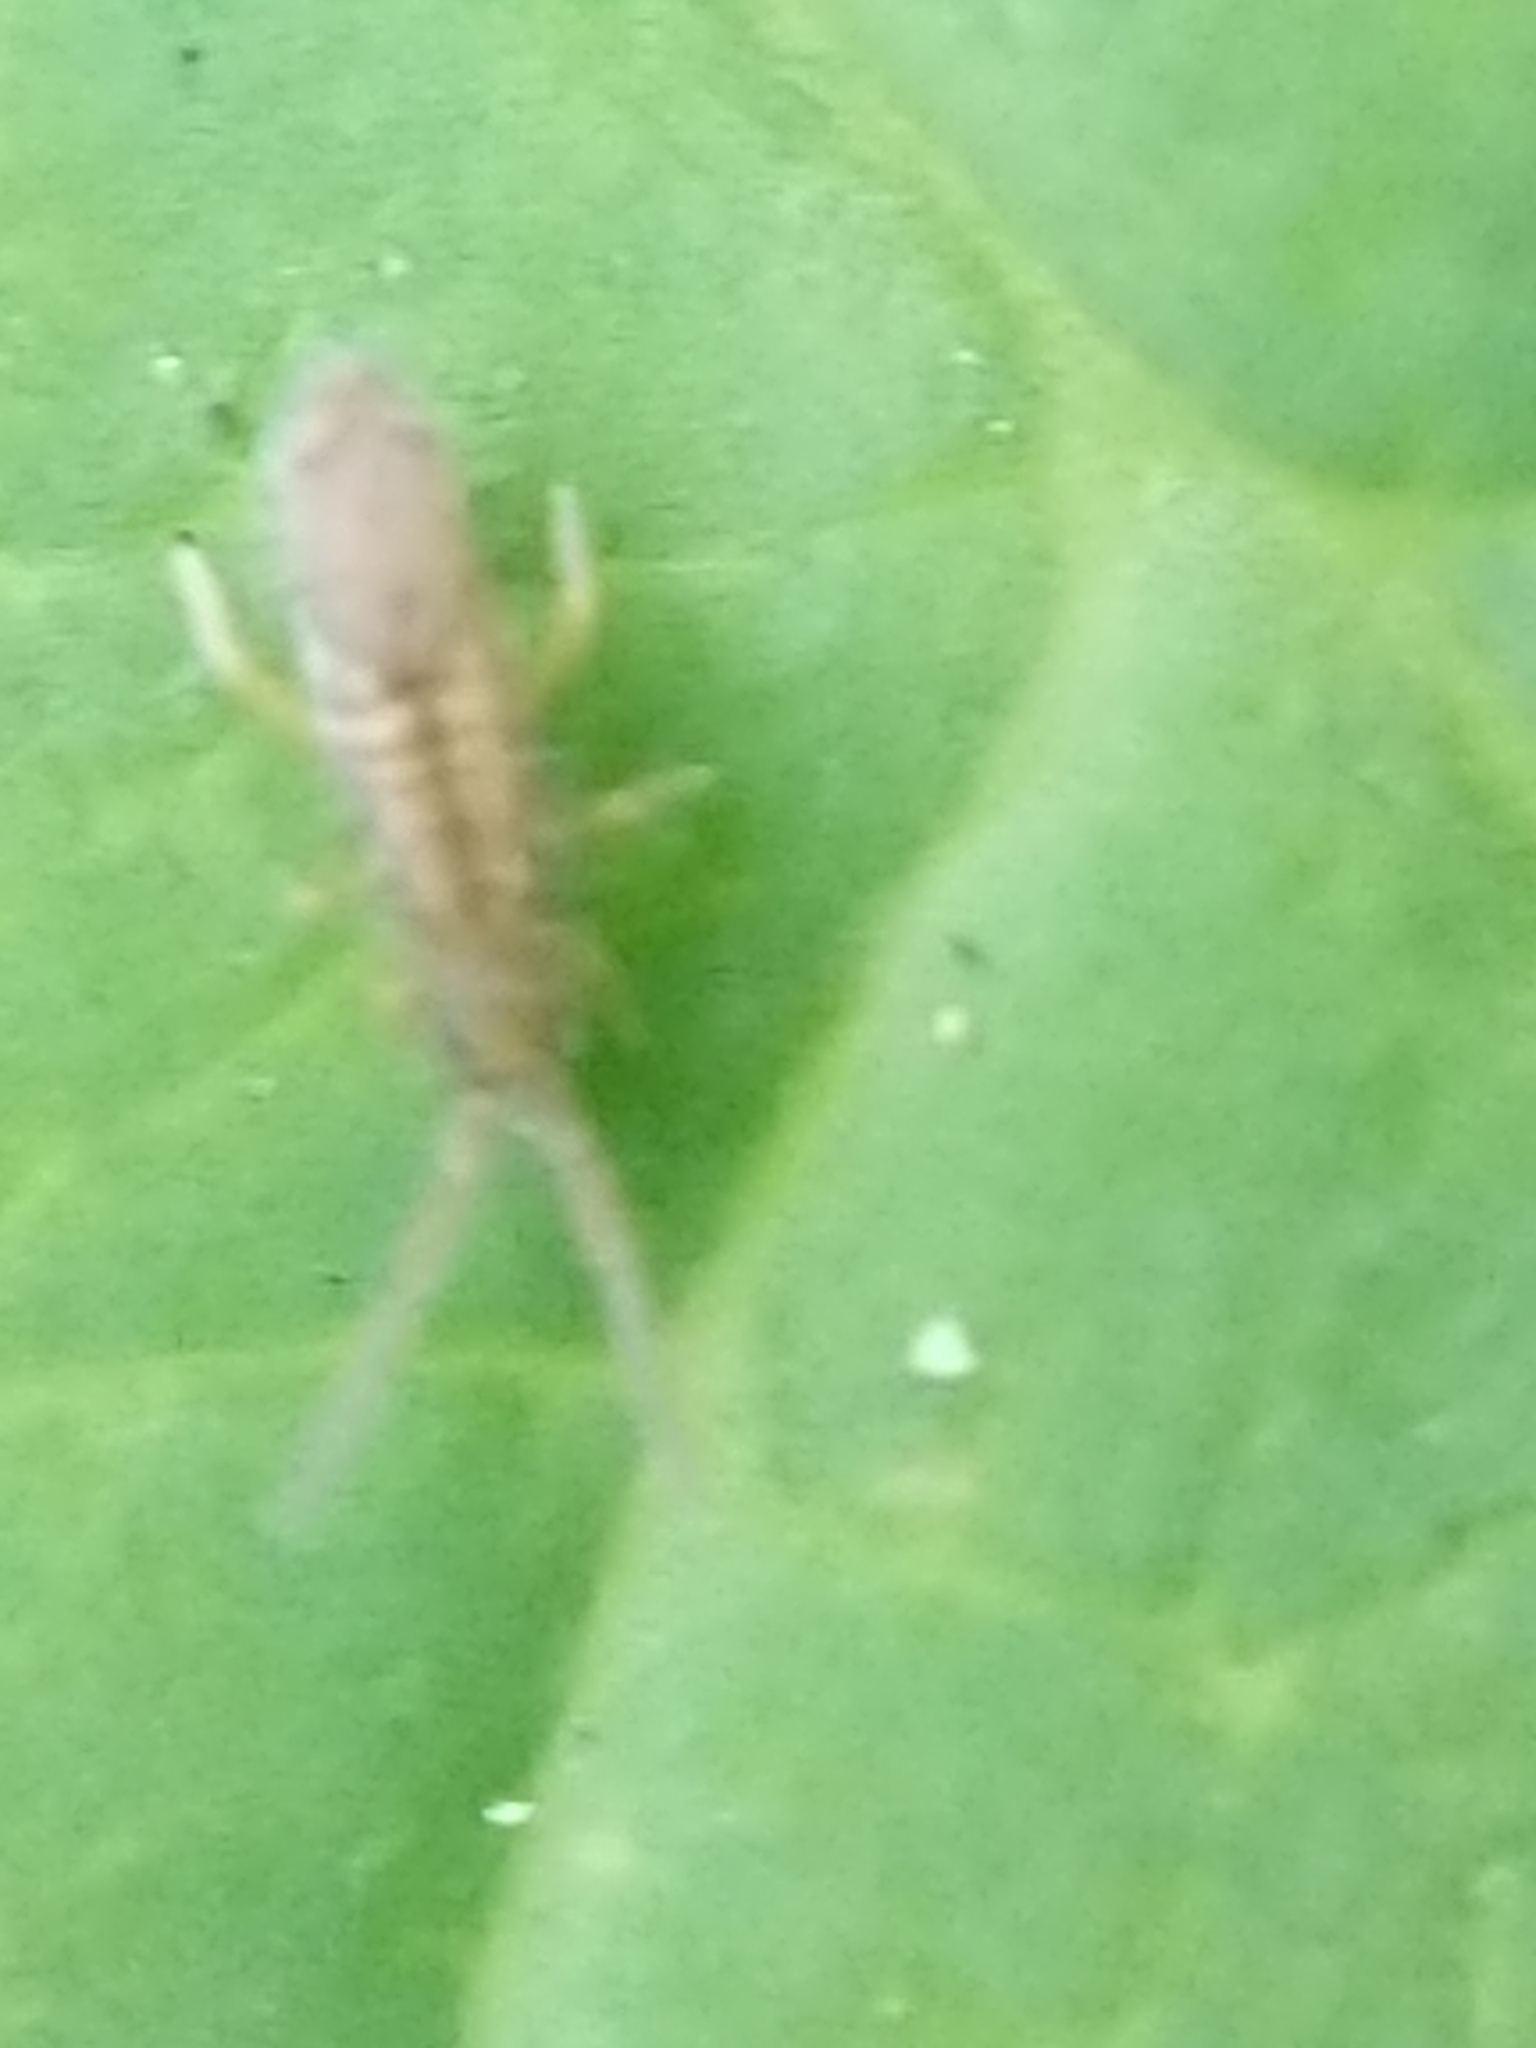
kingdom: Animalia
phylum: Arthropoda
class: Collembola
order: Entomobryomorpha
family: Entomobryidae
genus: Homidia
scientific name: Homidia socia
